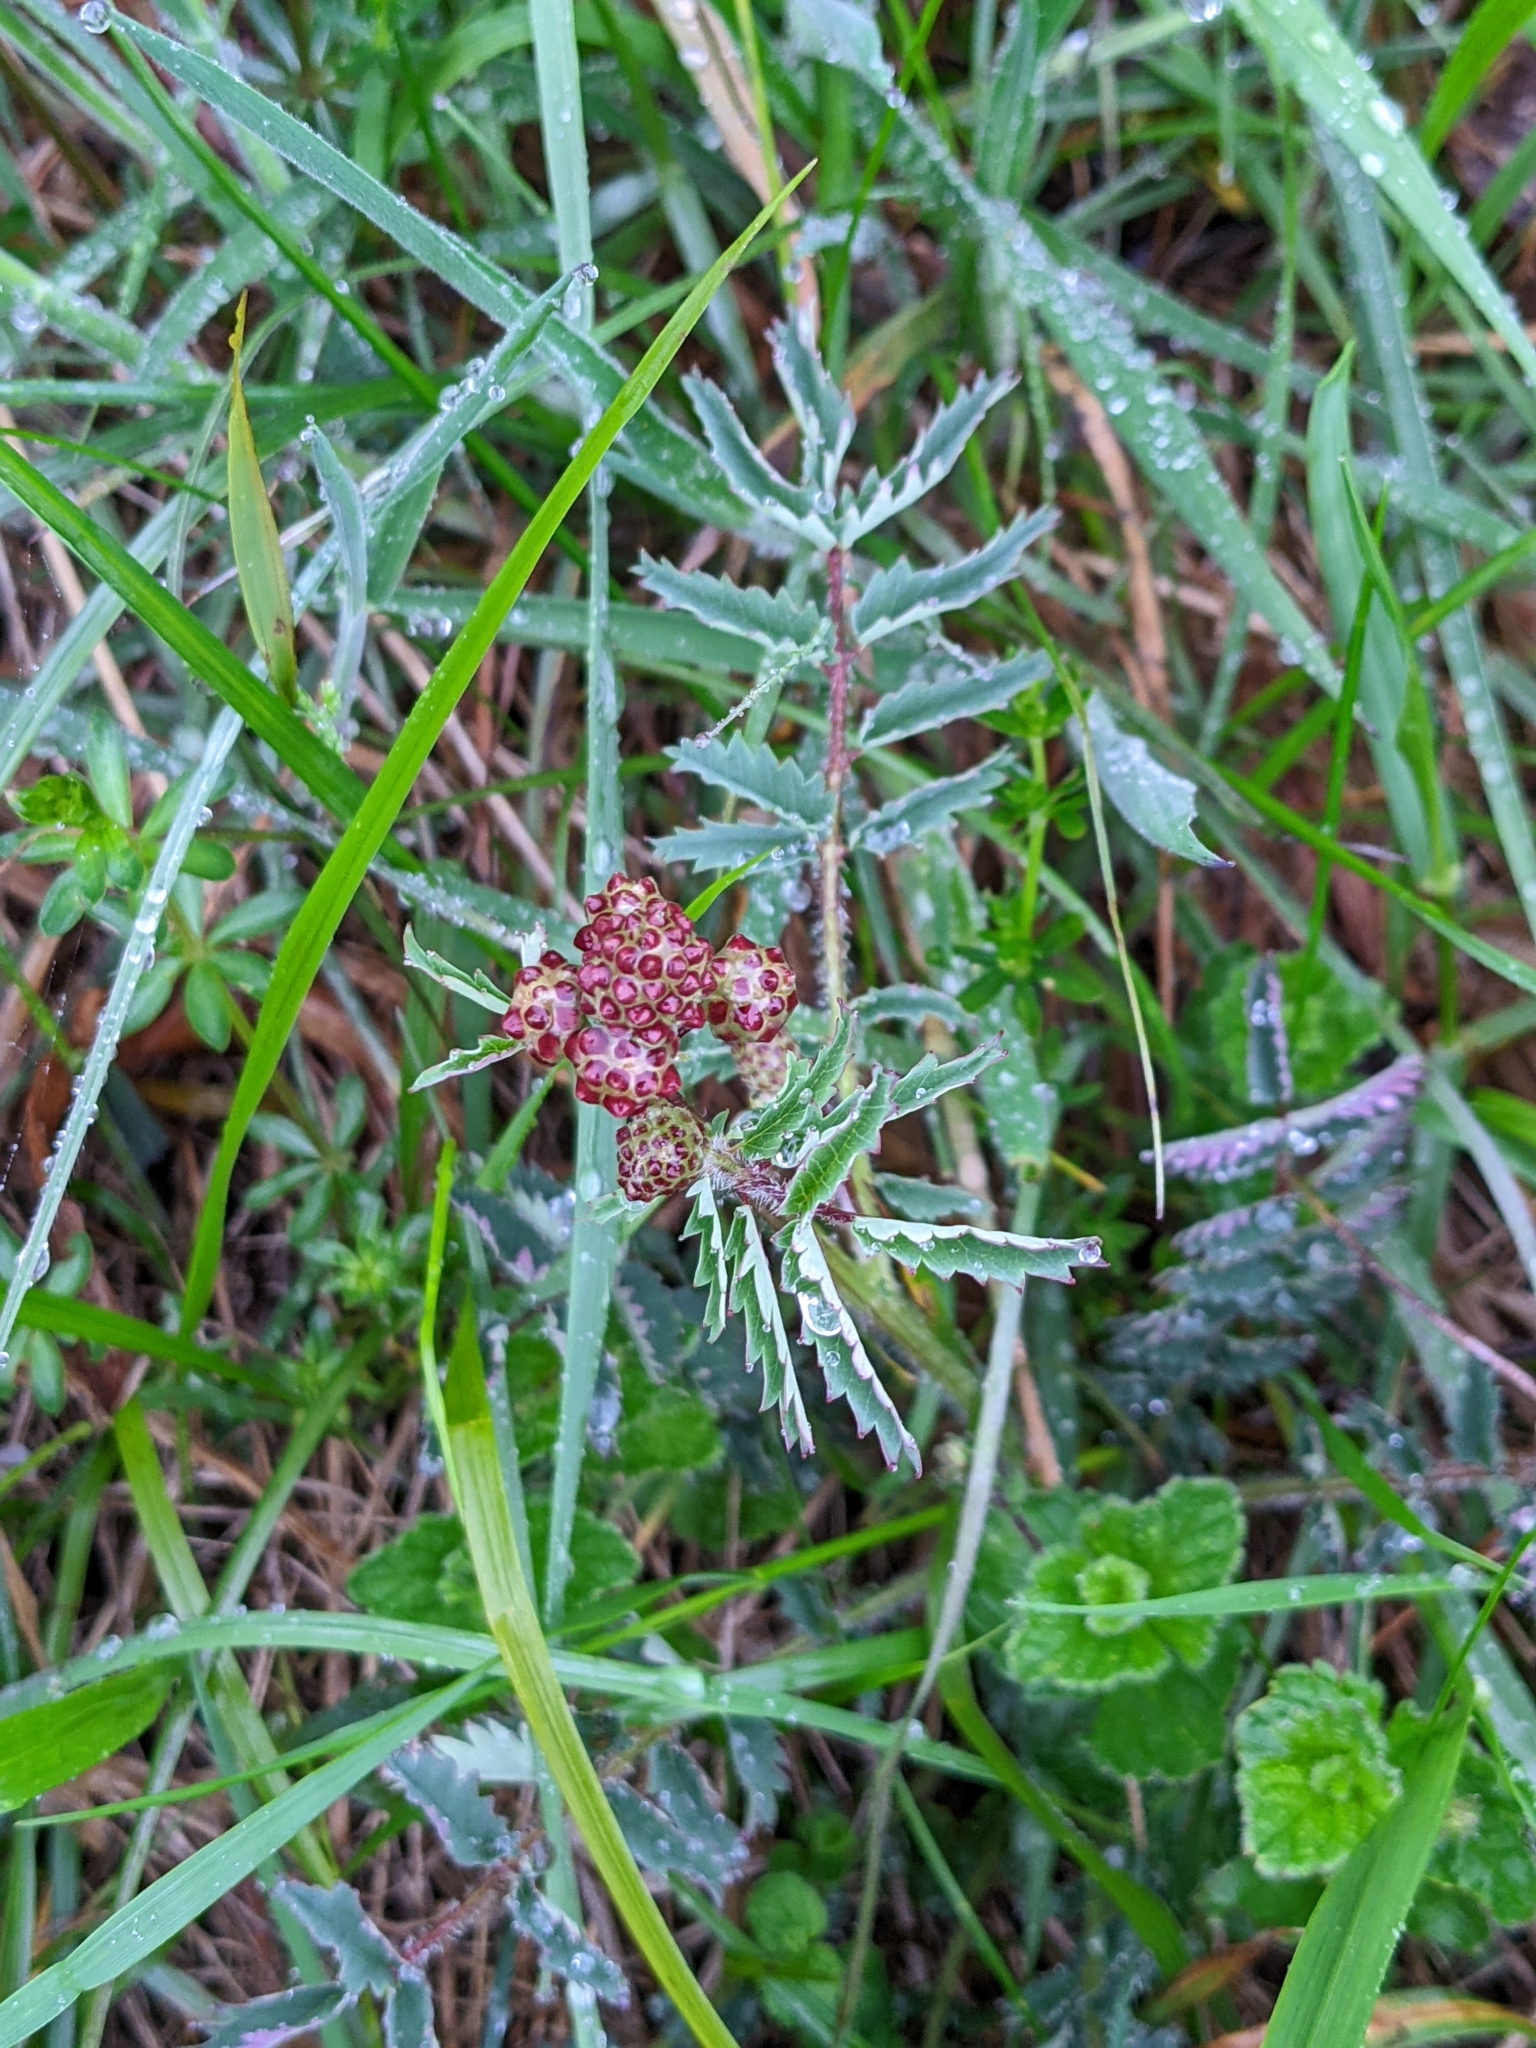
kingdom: Plantae
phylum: Tracheophyta
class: Magnoliopsida
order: Rosales
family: Rosaceae
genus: Poterium
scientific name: Poterium sanguisorba
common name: Salad burnet
